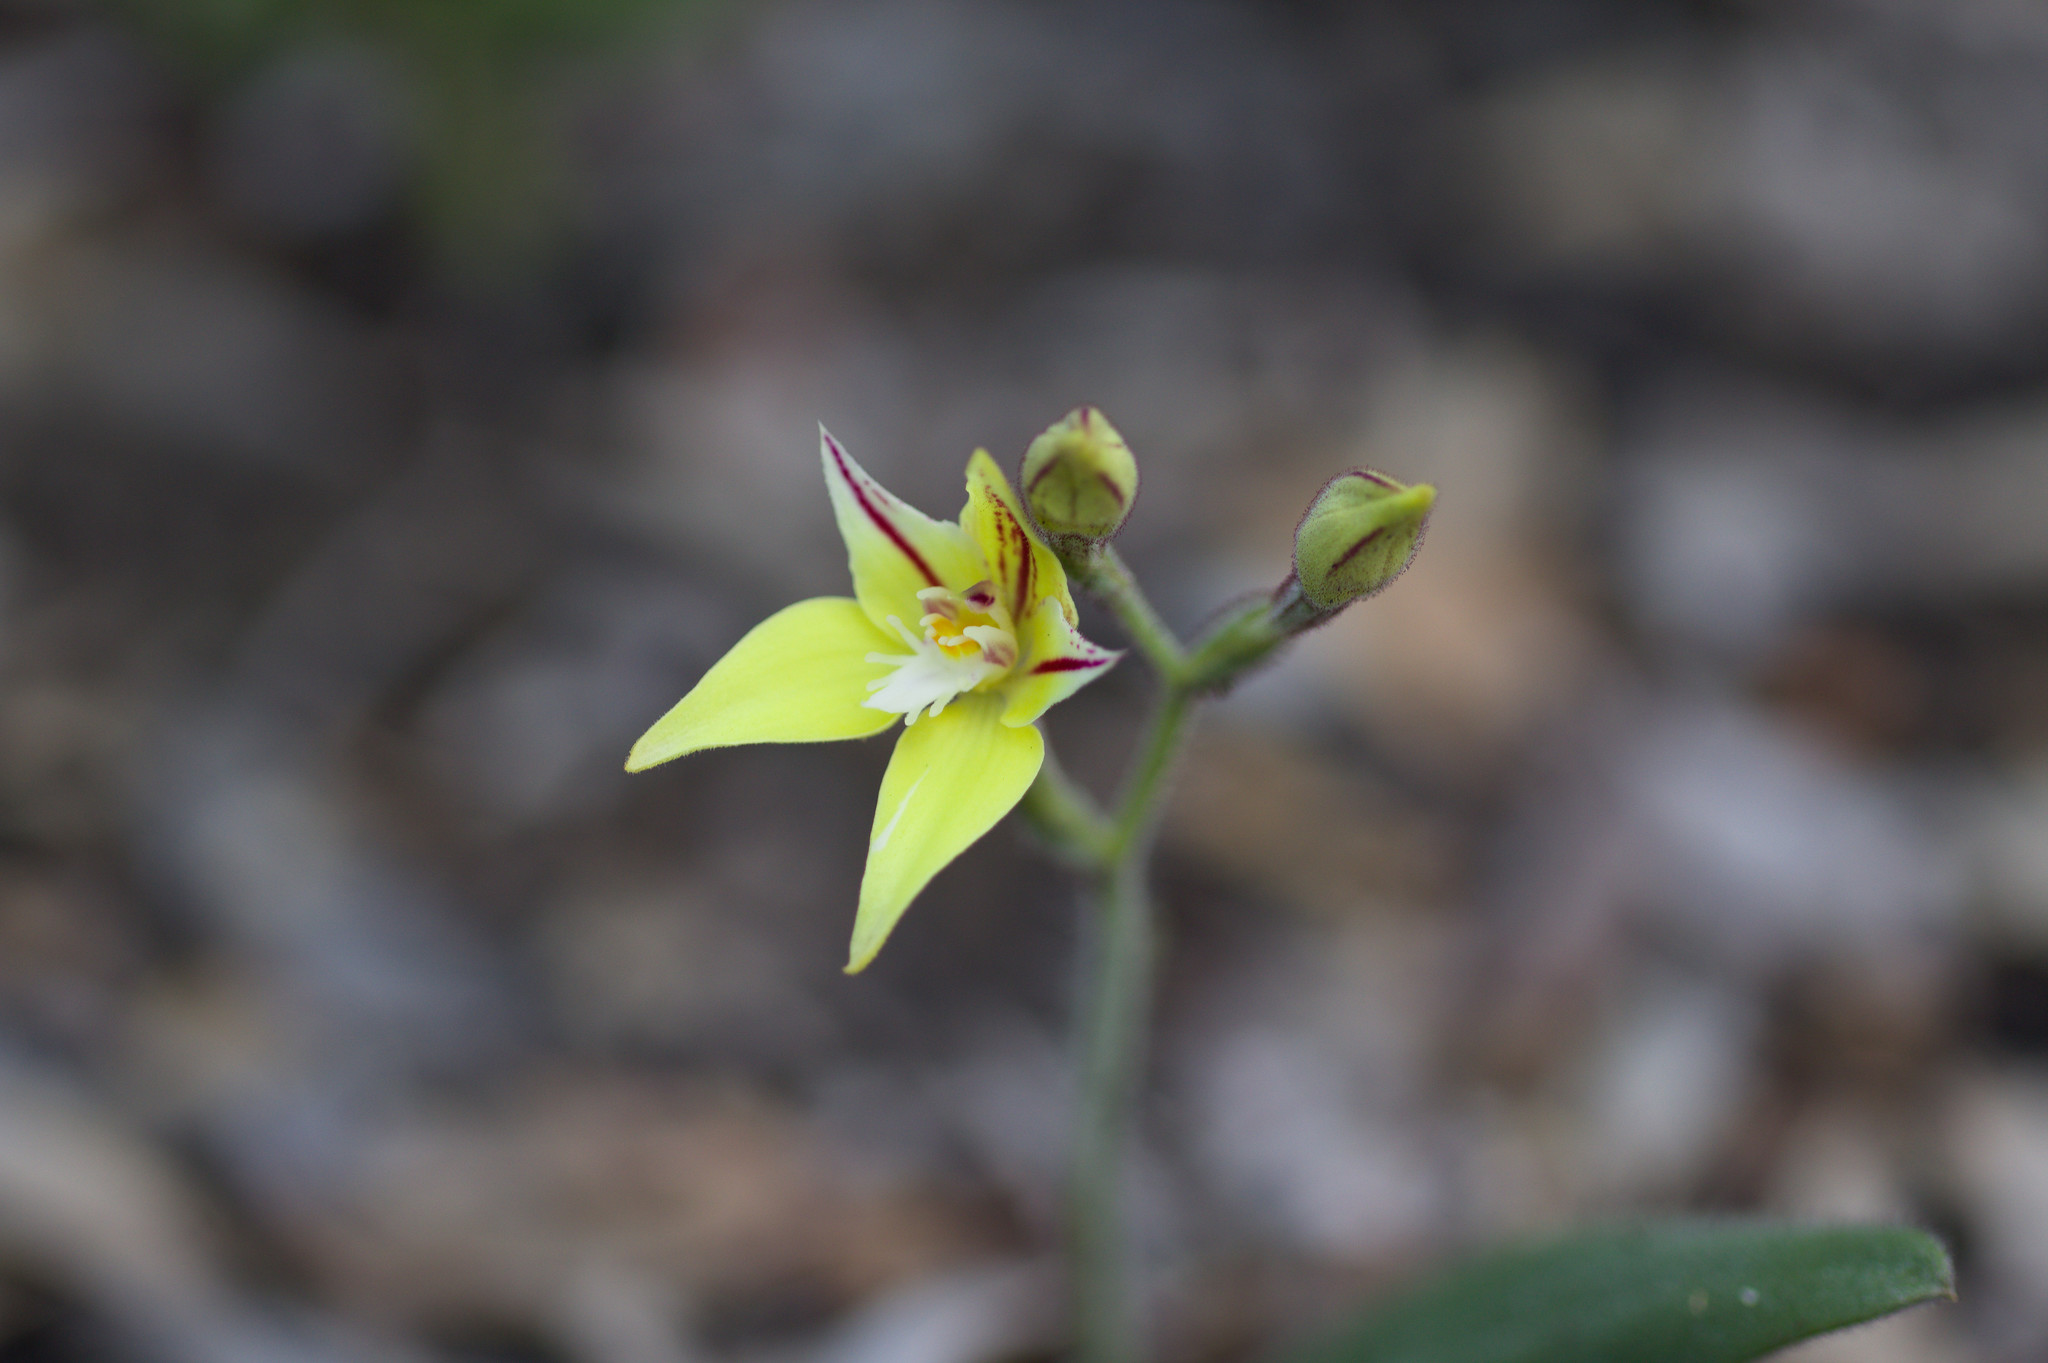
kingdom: Plantae
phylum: Tracheophyta
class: Liliopsida
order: Asparagales
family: Orchidaceae
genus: Caladenia
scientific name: Caladenia flava
